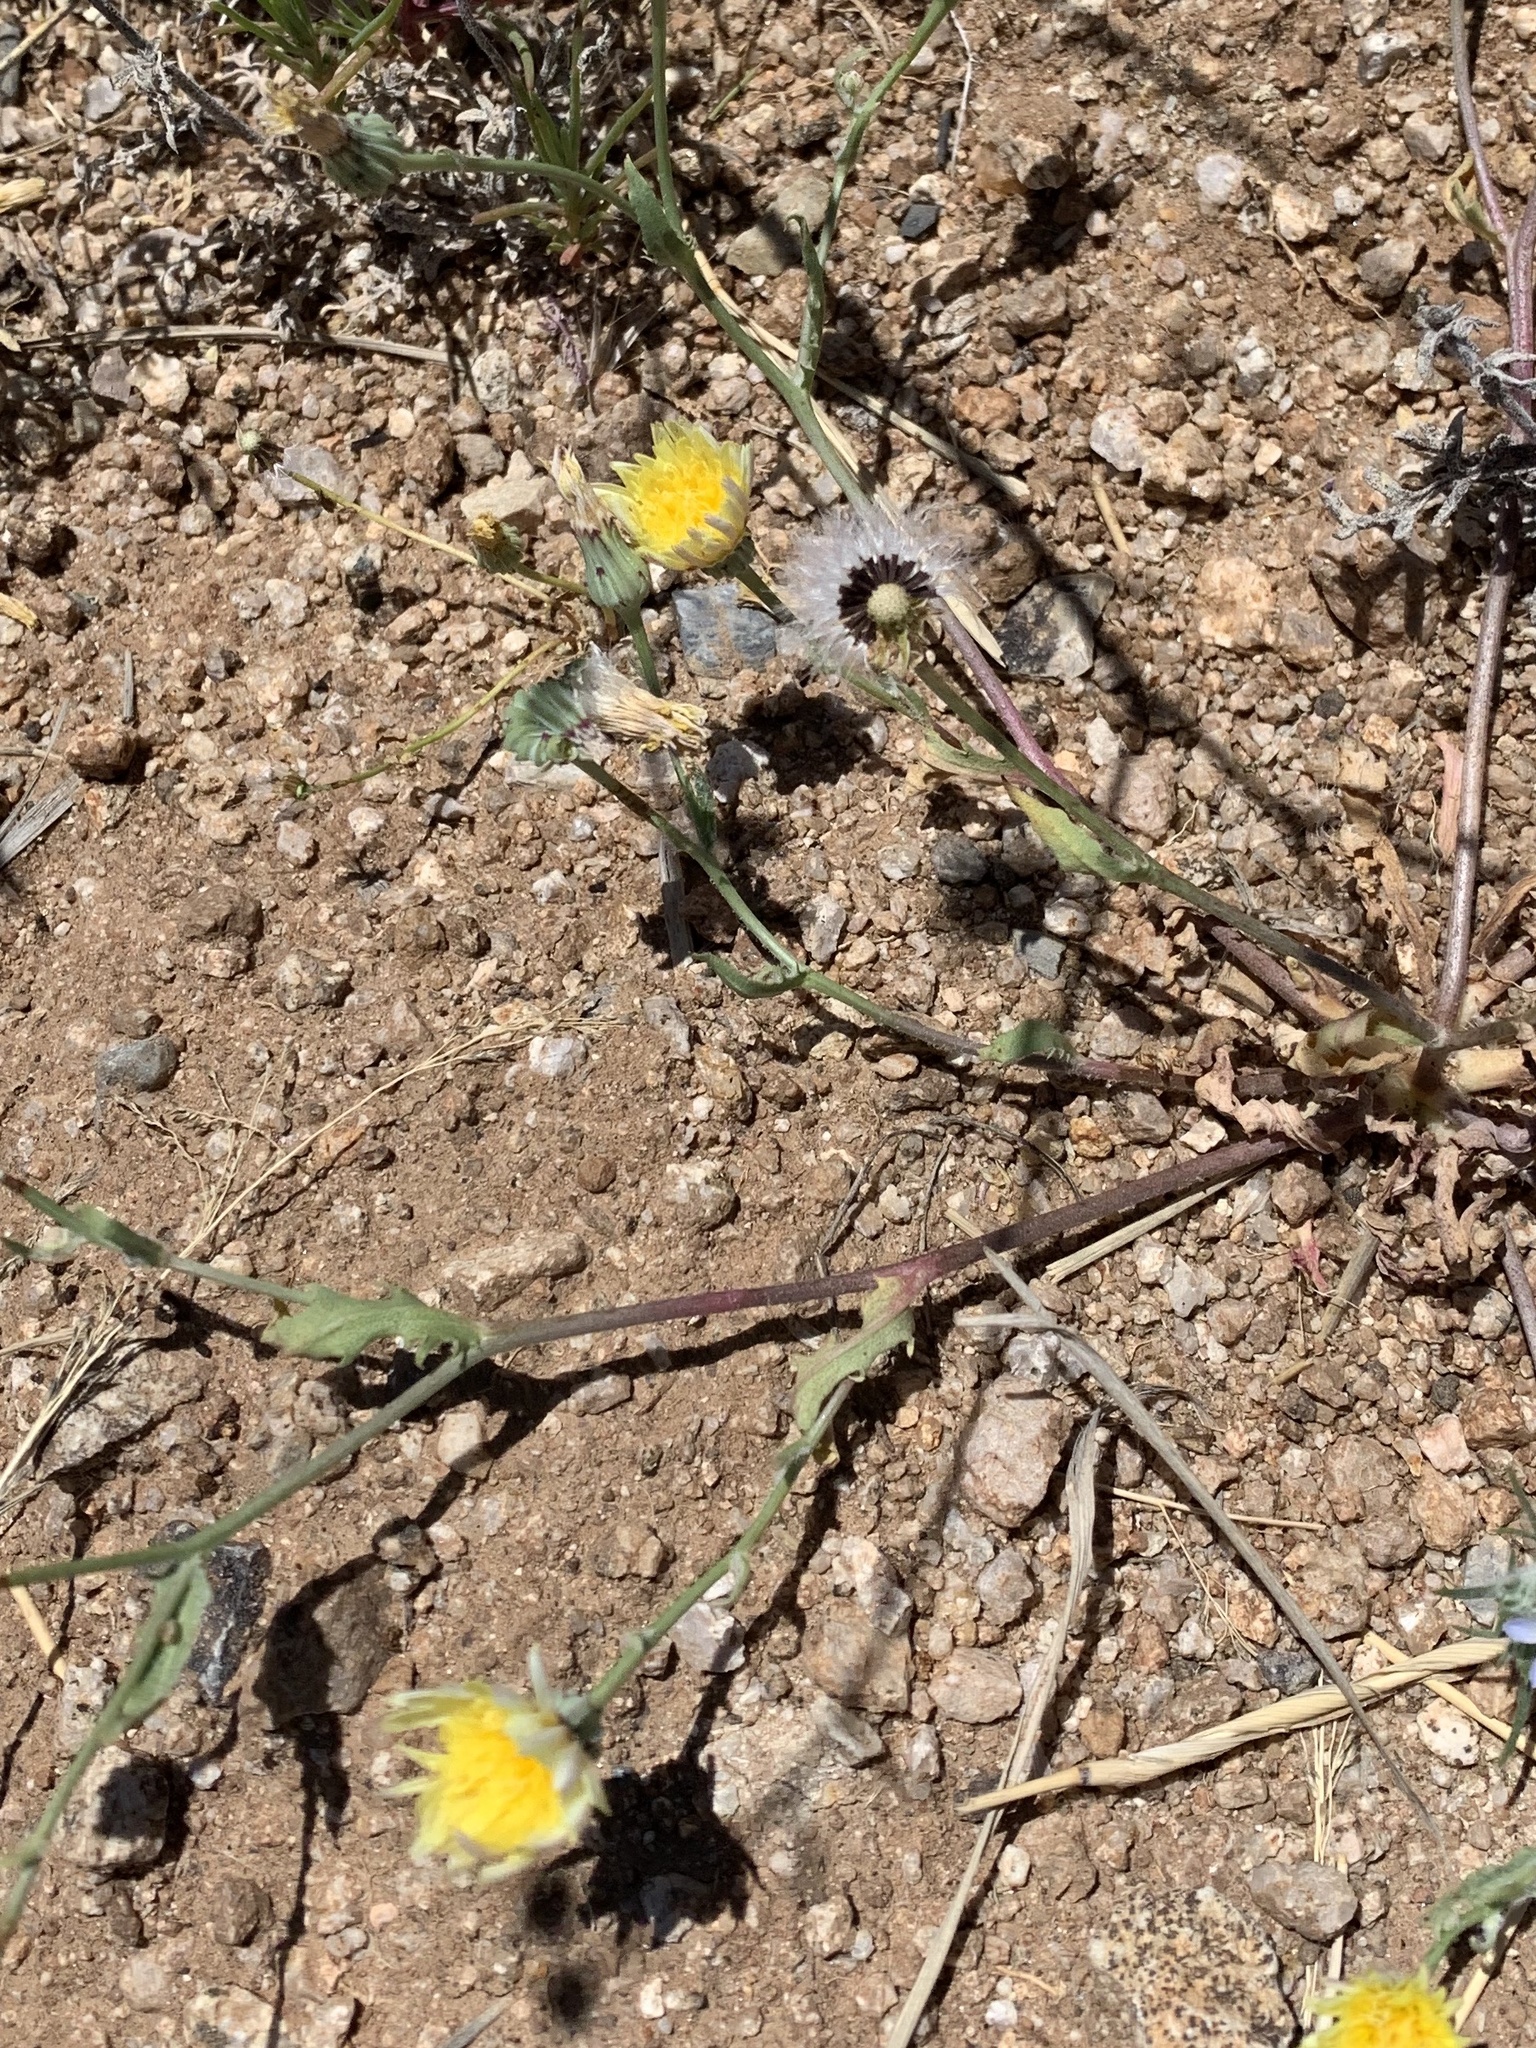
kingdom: Plantae
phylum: Tracheophyta
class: Magnoliopsida
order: Asterales
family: Asteraceae
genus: Malacothrix
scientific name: Malacothrix fendleri
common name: Fendler's desert-dandelion
